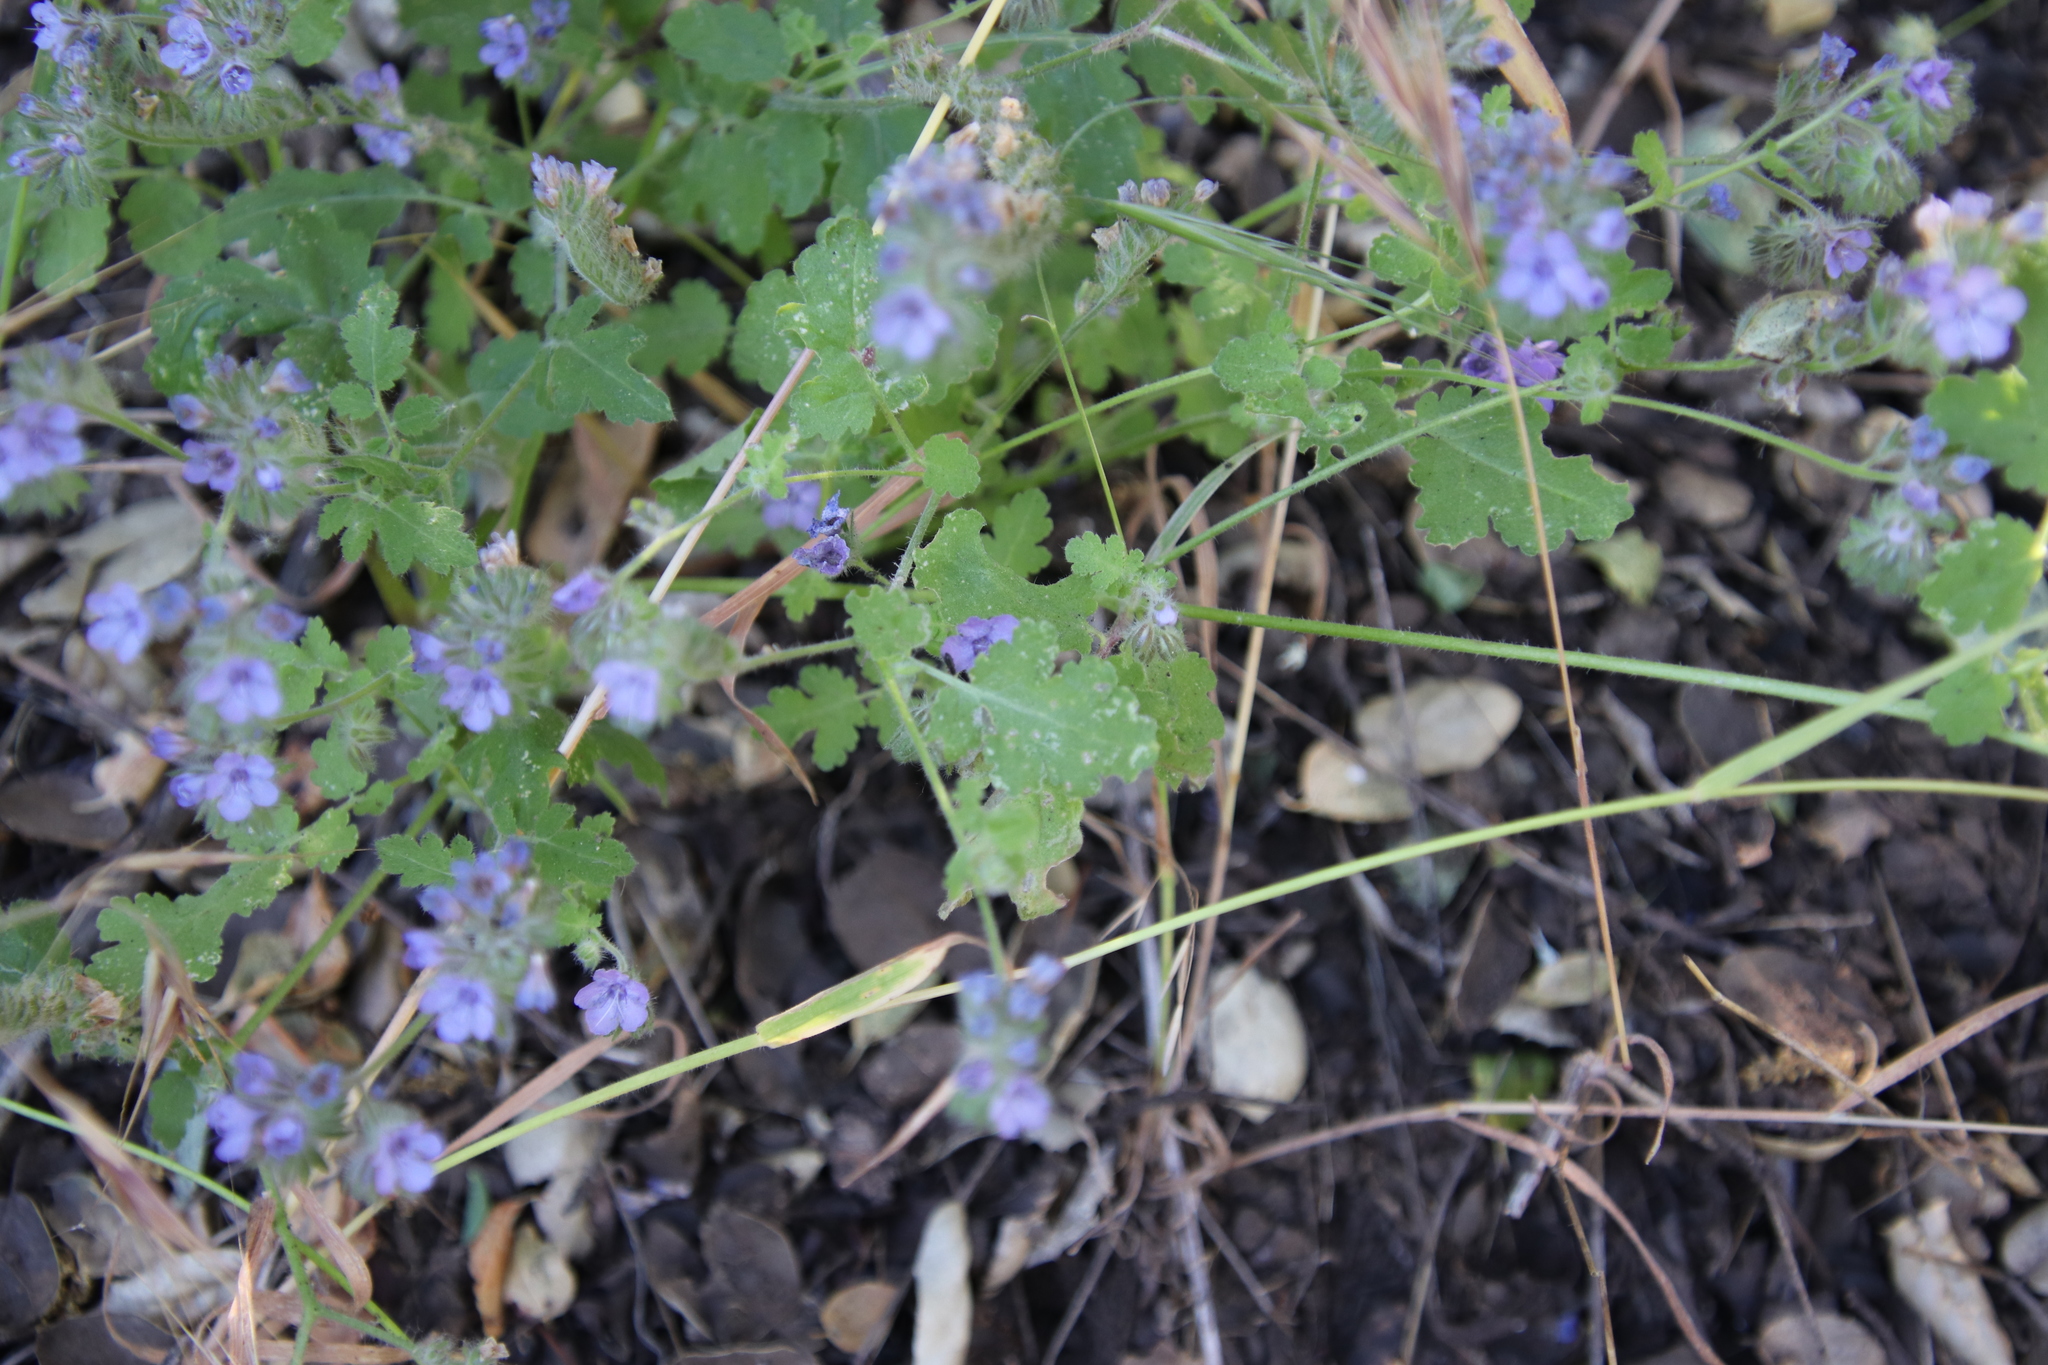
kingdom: Plantae
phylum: Tracheophyta
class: Magnoliopsida
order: Boraginales
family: Hydrophyllaceae
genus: Phacelia
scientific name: Phacelia distans
